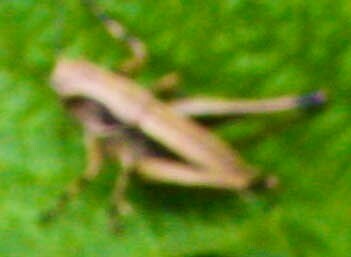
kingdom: Animalia
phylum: Arthropoda
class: Insecta
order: Orthoptera
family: Tettigoniidae
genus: Pholidoptera
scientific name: Pholidoptera griseoaptera
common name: Dark bush-cricket
